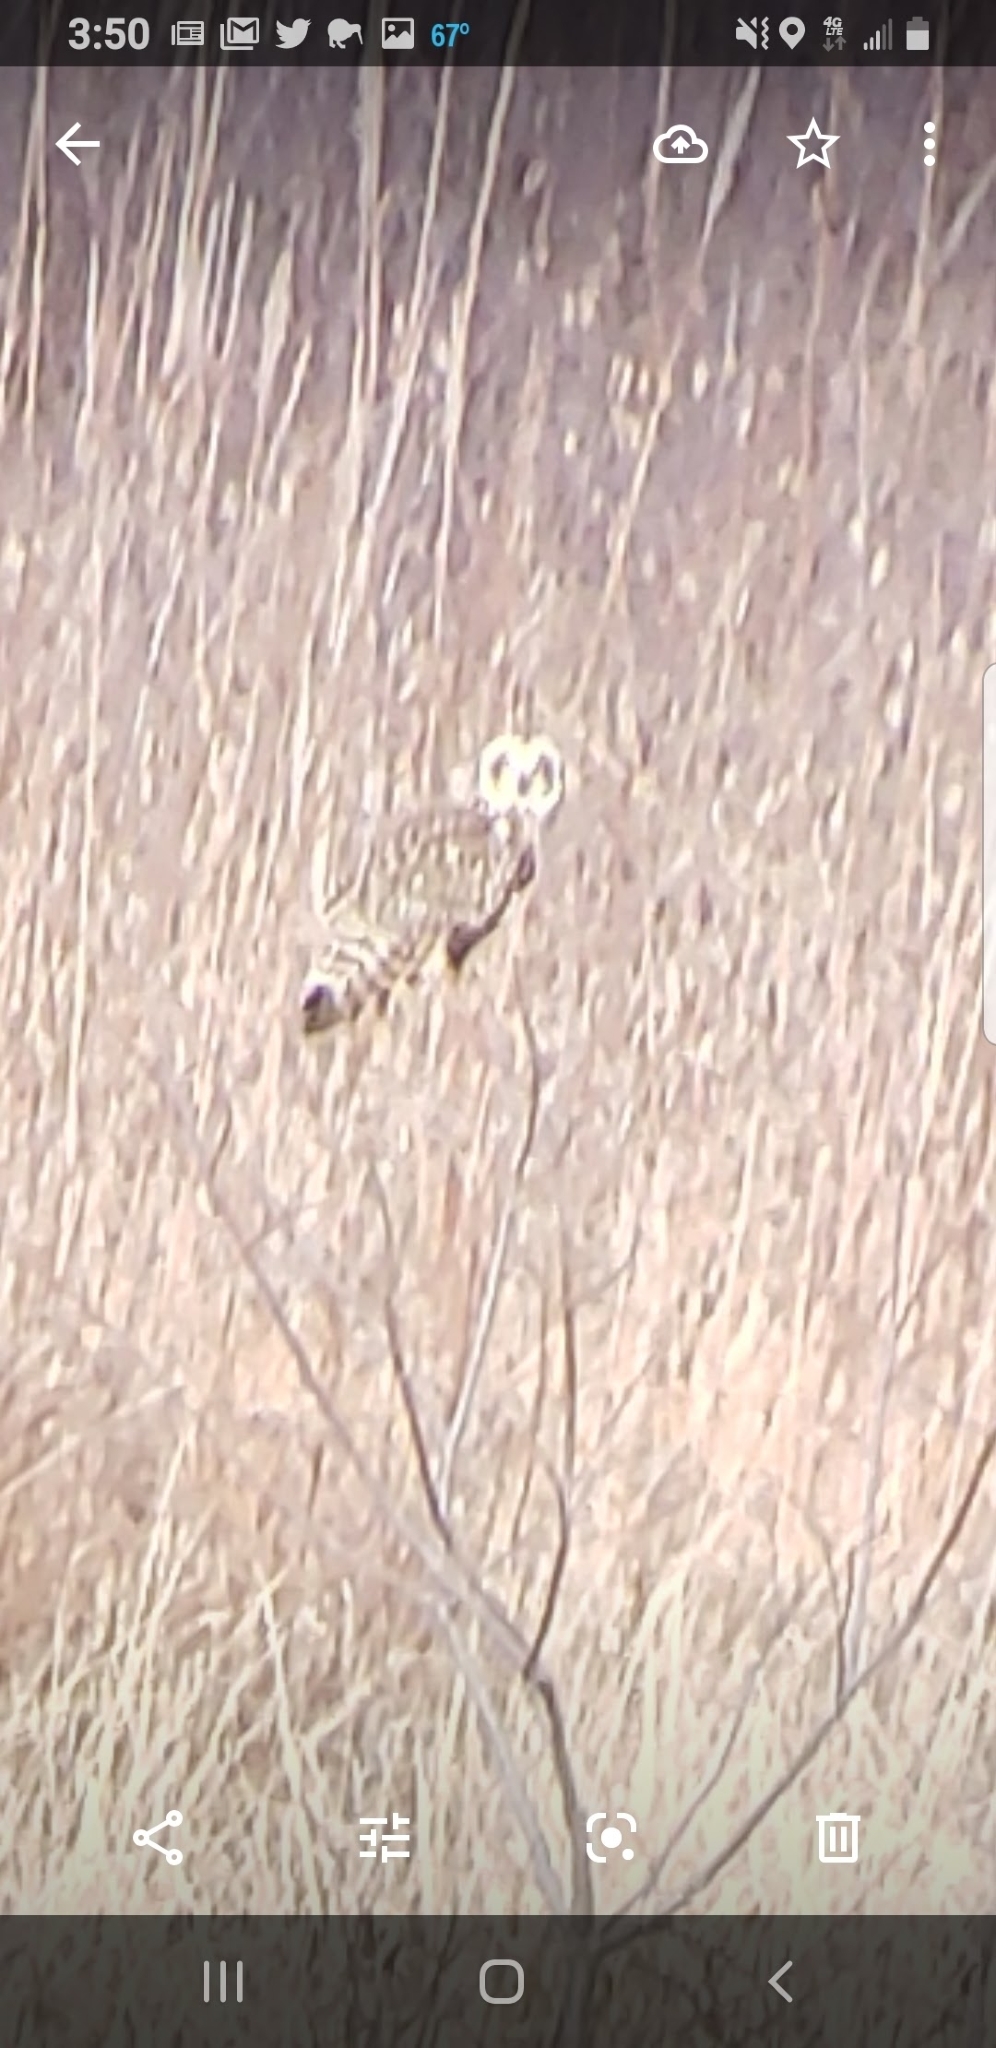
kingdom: Animalia
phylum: Chordata
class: Aves
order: Strigiformes
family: Strigidae
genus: Asio
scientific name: Asio flammeus
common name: Short-eared owl
